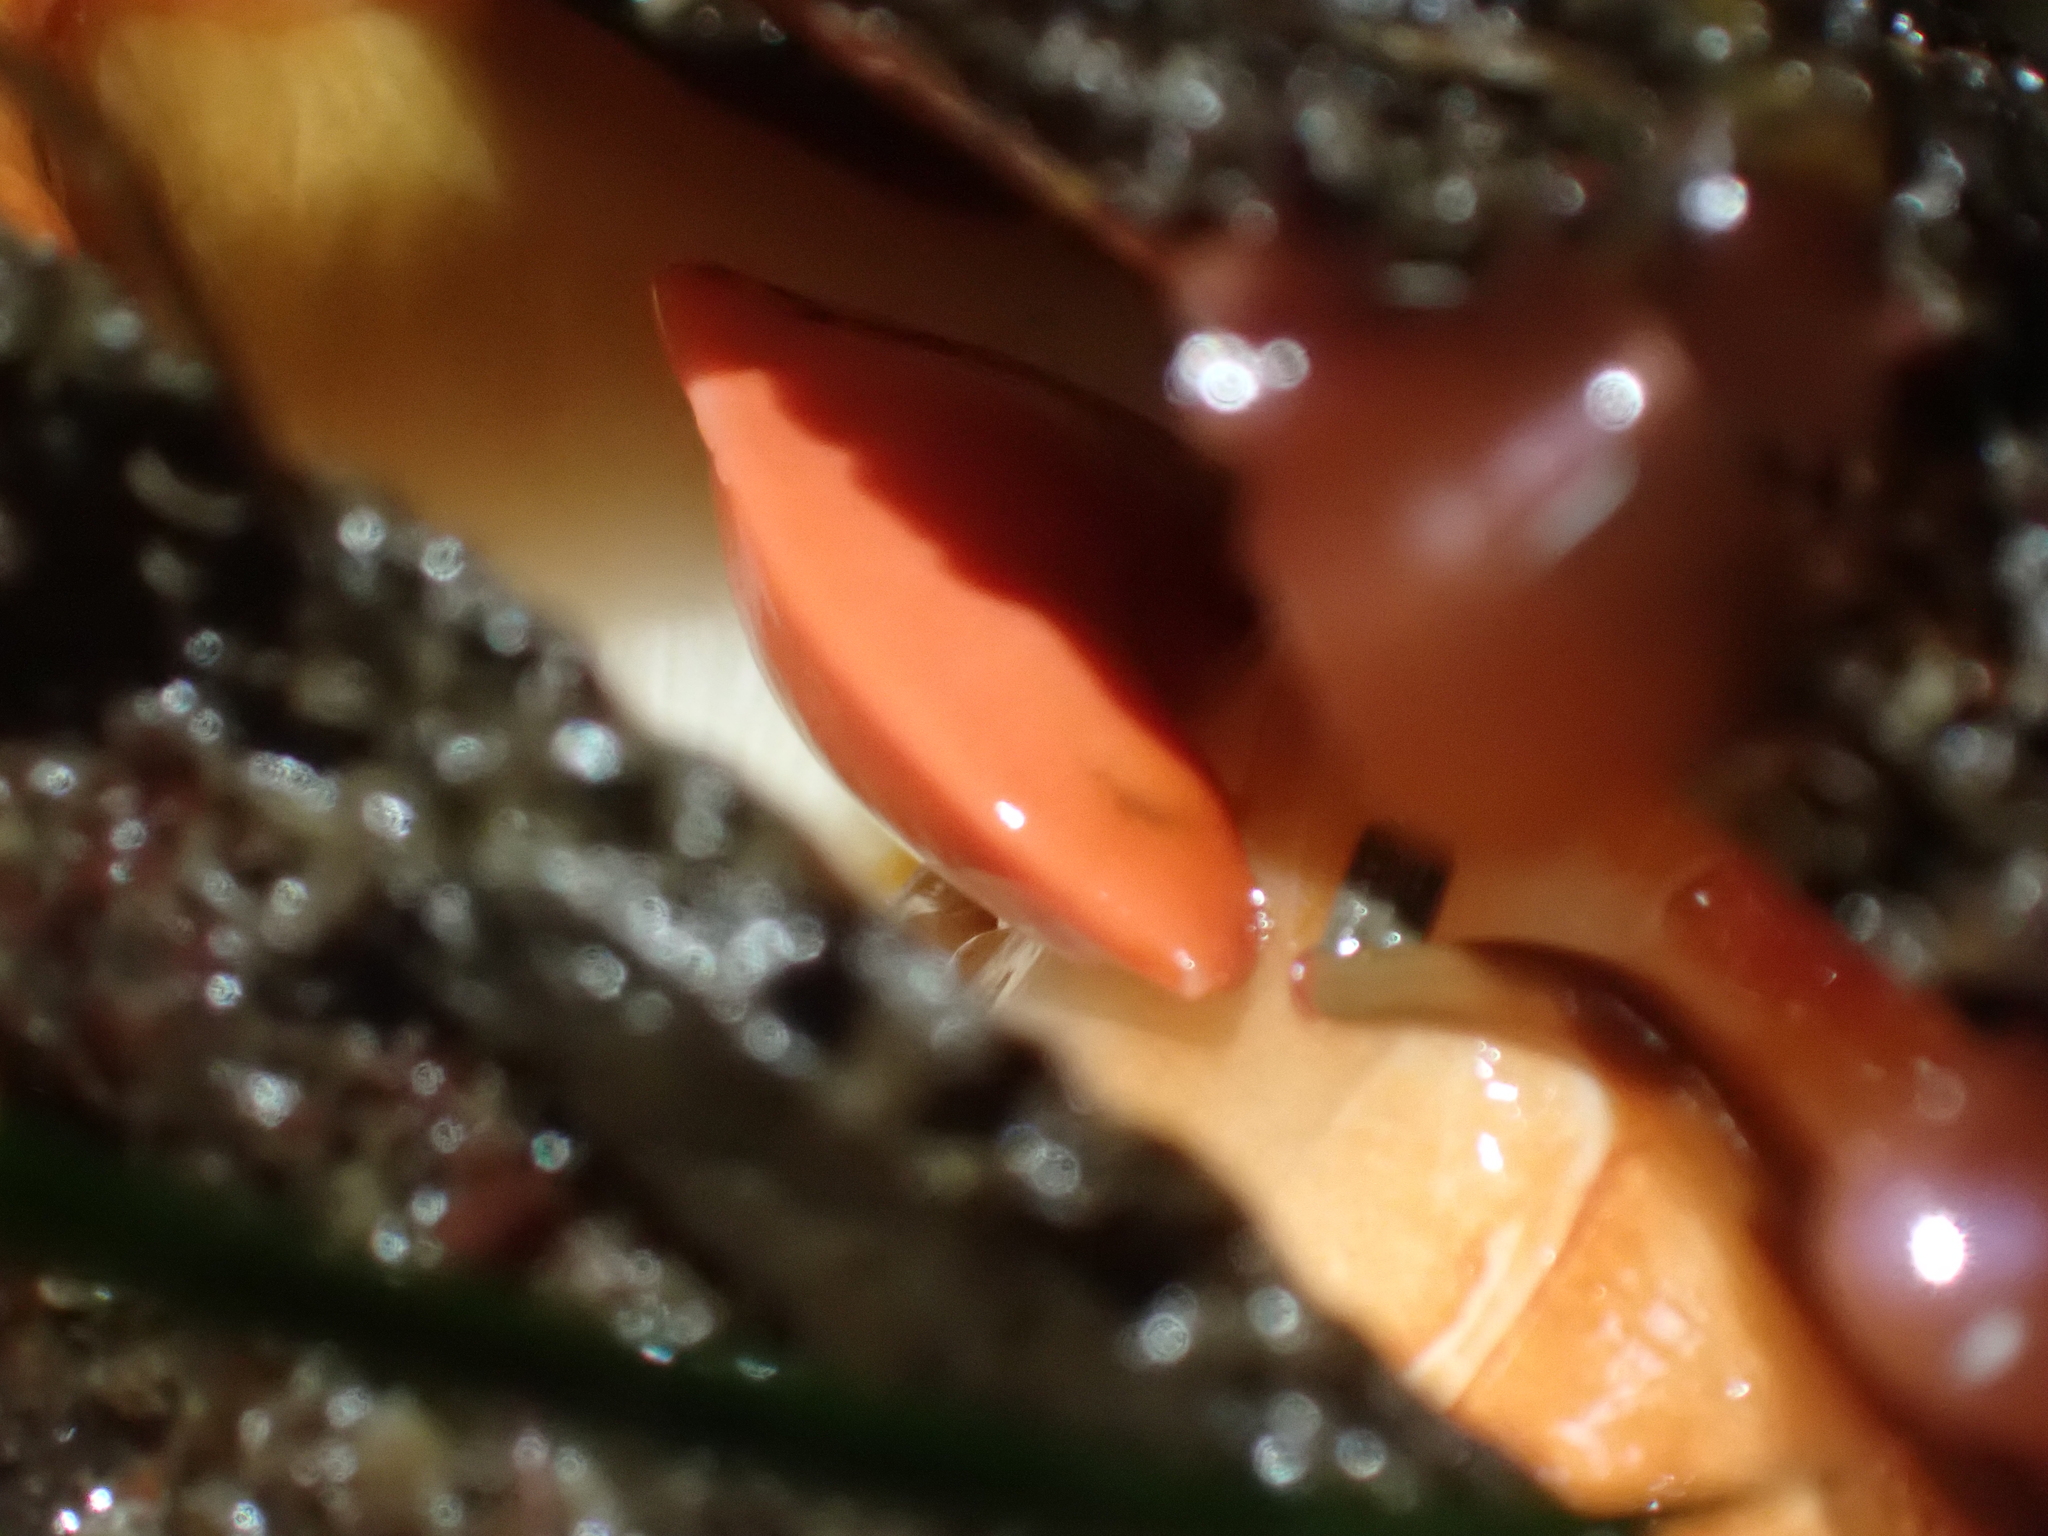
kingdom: Animalia
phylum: Mollusca
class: Bivalvia
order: Pectinida
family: Pectinidae
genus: Crassadoma
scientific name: Crassadoma gigantea
